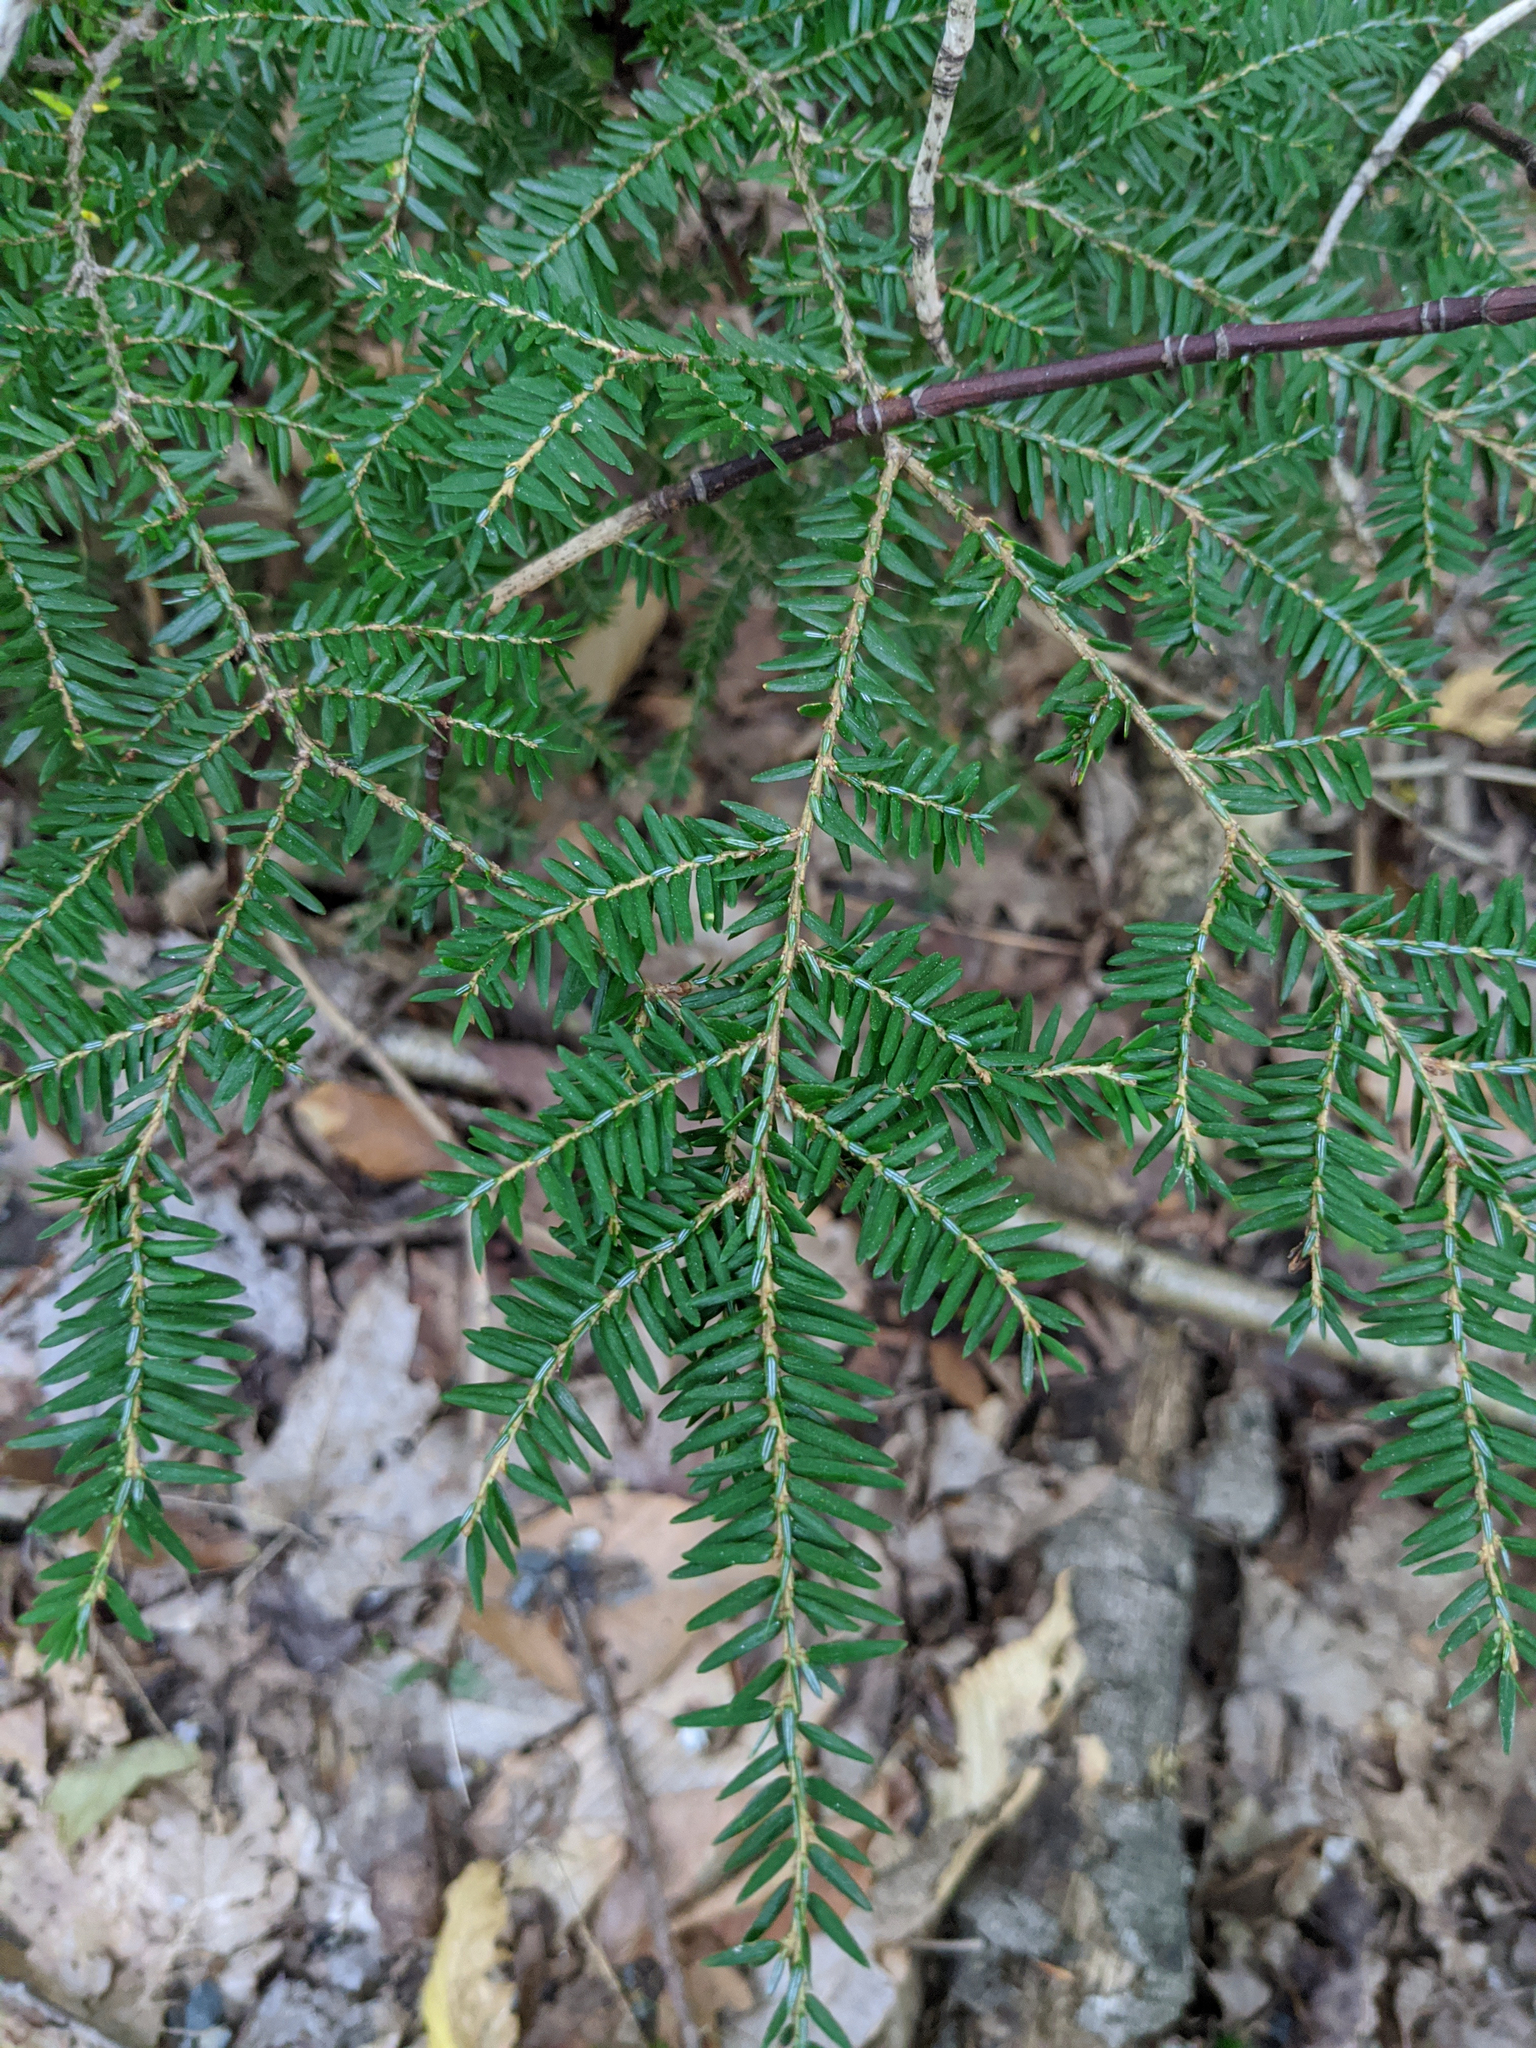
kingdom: Plantae
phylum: Tracheophyta
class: Pinopsida
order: Pinales
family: Pinaceae
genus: Tsuga
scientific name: Tsuga canadensis
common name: Eastern hemlock
